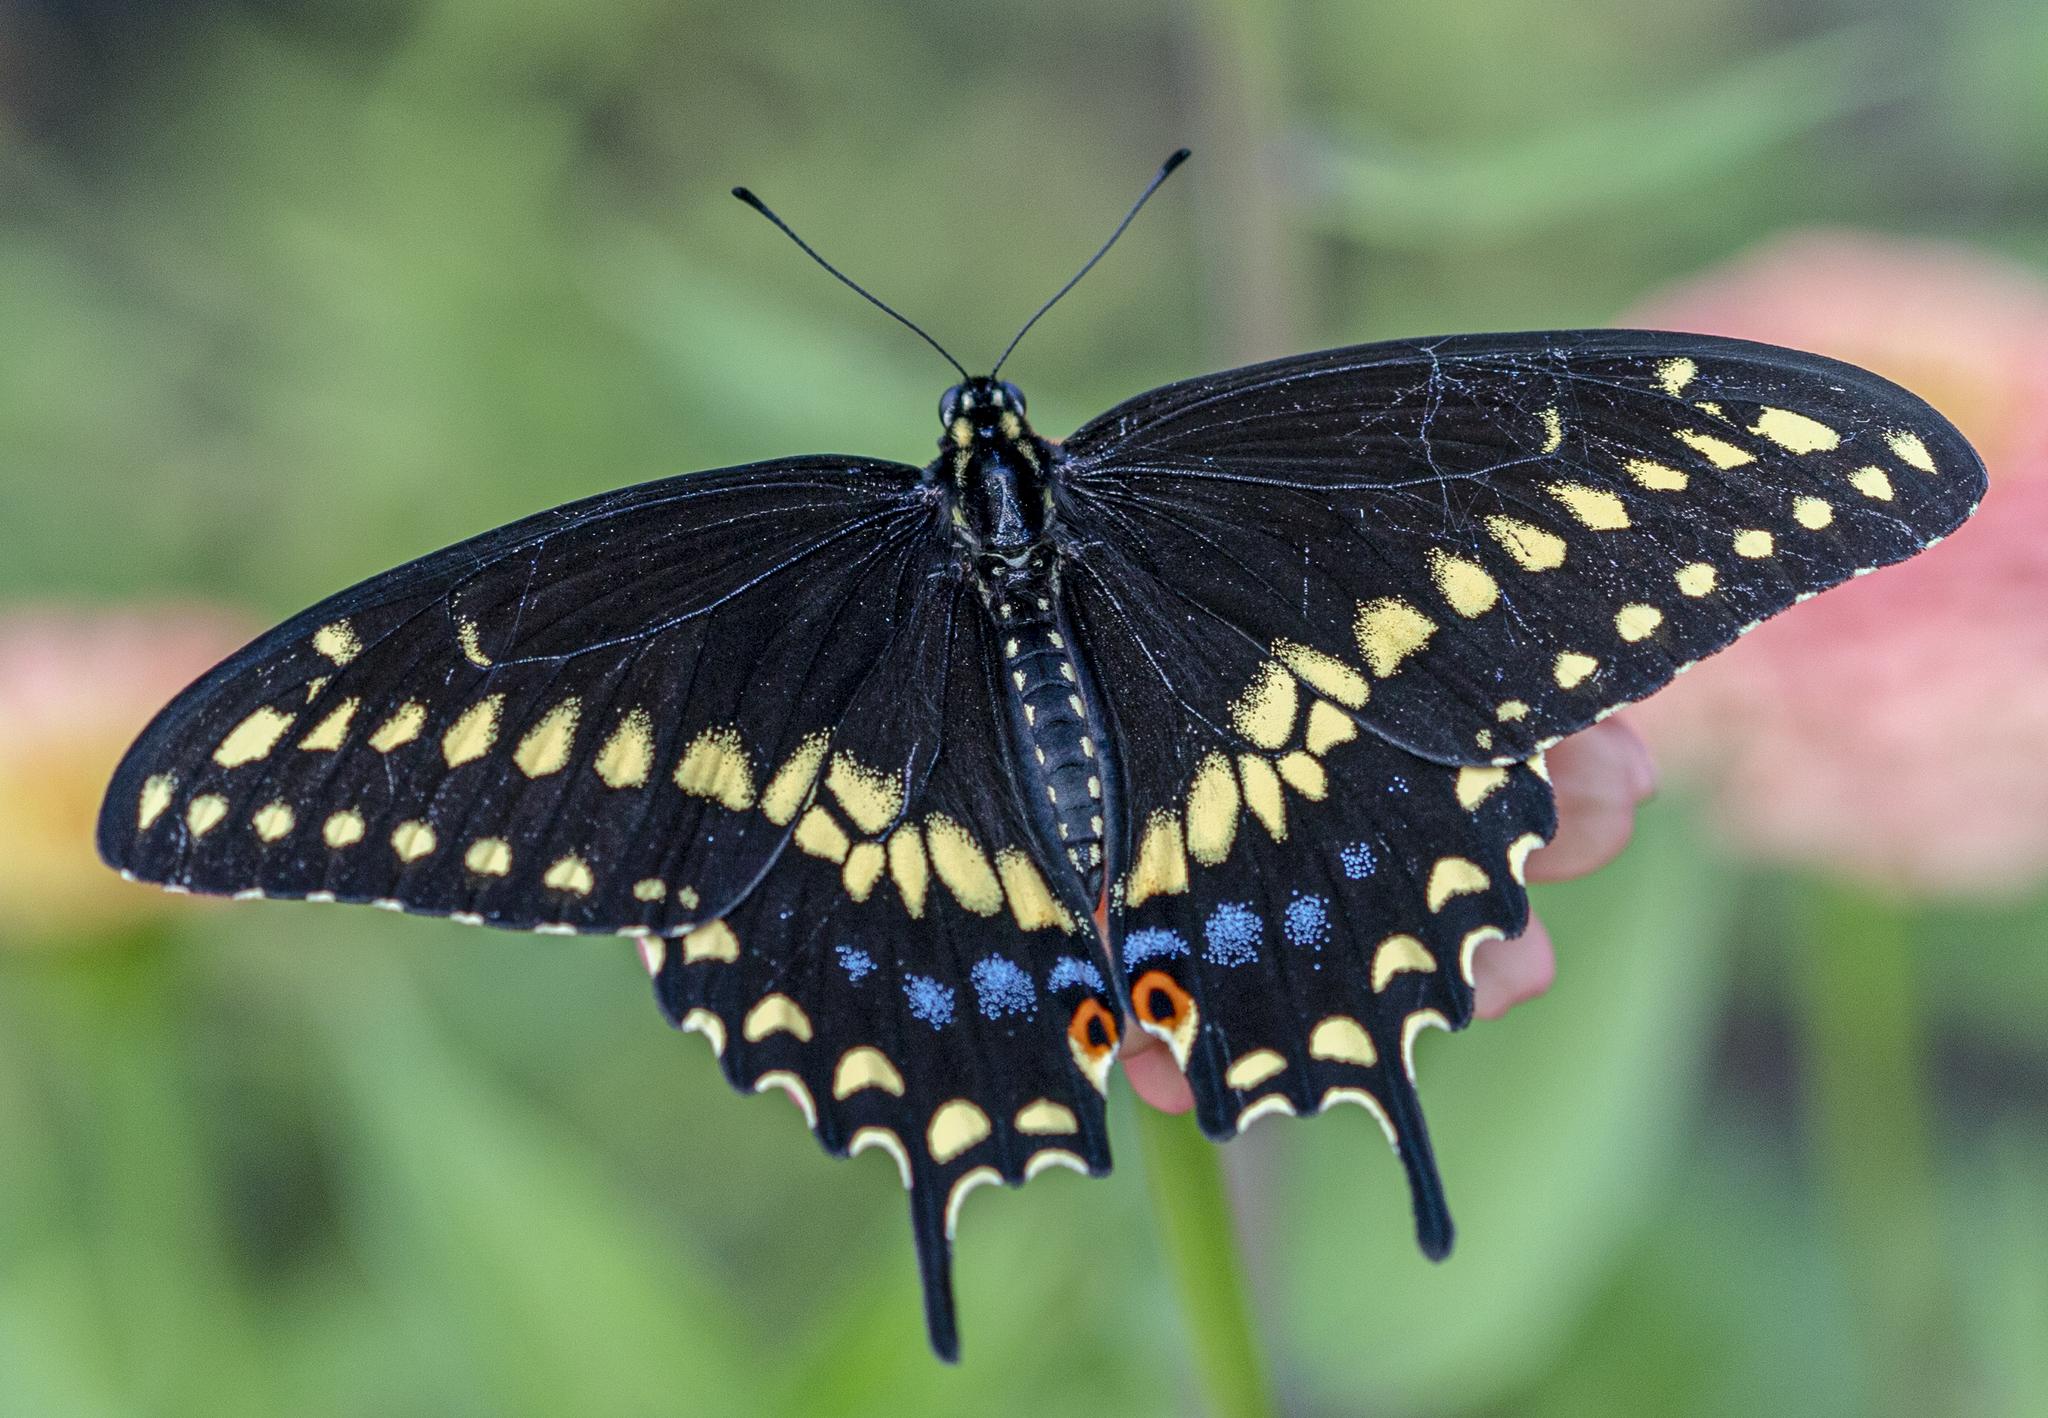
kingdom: Animalia
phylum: Arthropoda
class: Insecta
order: Lepidoptera
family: Papilionidae
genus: Papilio
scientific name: Papilio polyxenes
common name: Black swallowtail
